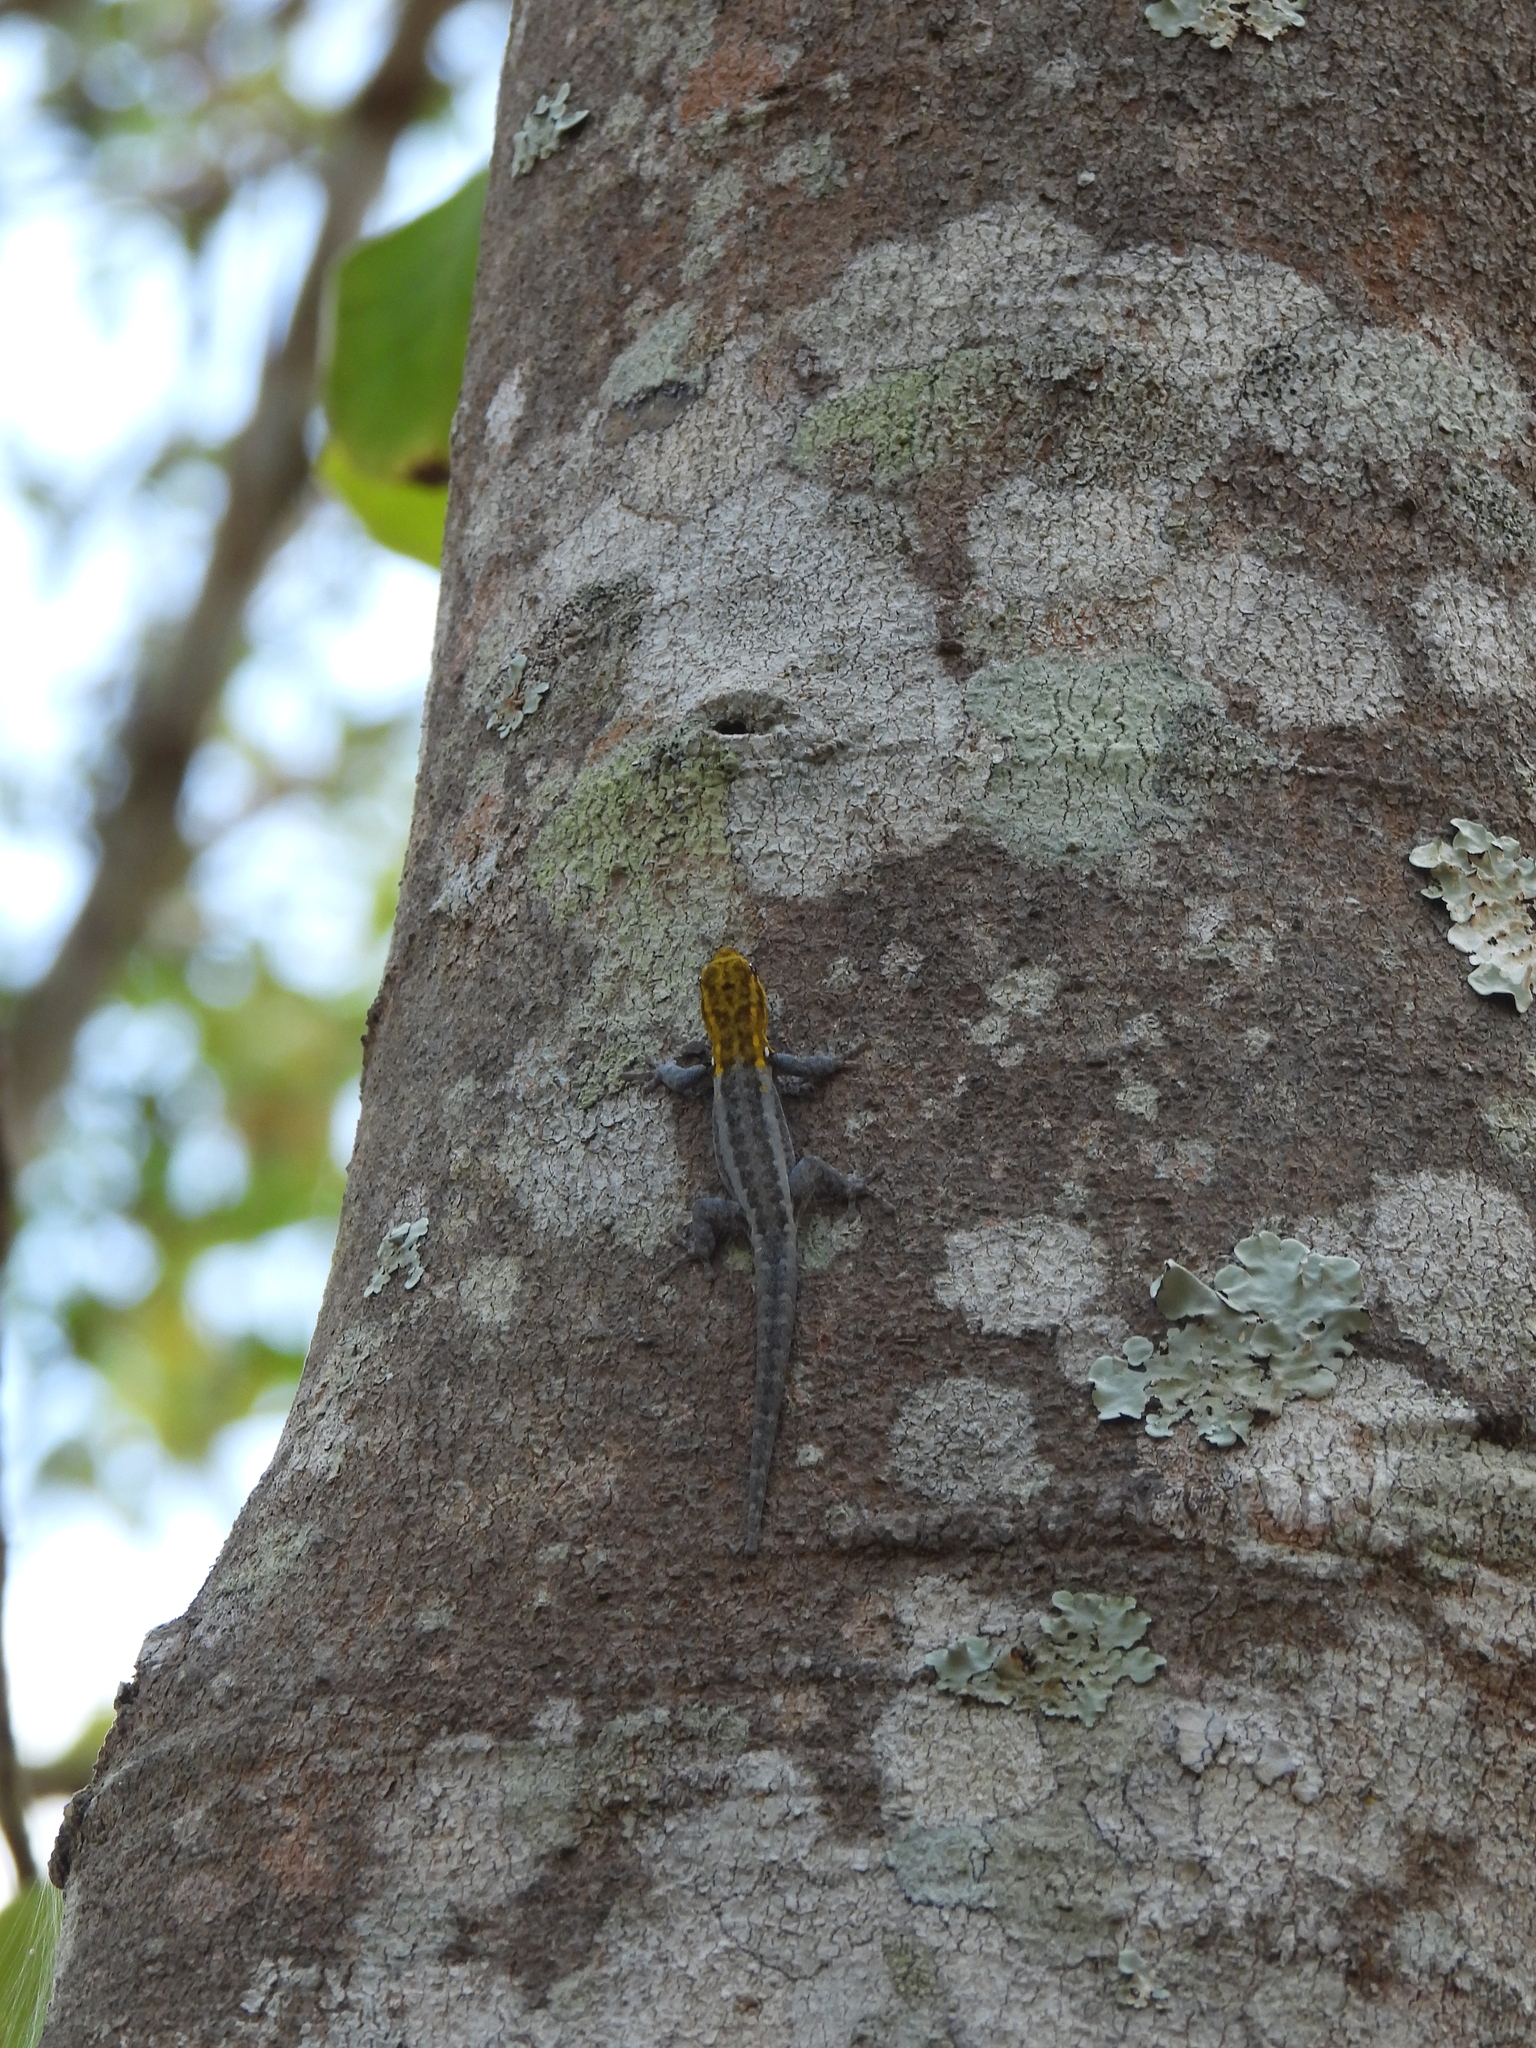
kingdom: Animalia
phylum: Chordata
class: Squamata
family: Gekkonidae
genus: Lygodactylus
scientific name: Lygodactylus picturatus
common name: Painted dwarf gecko
